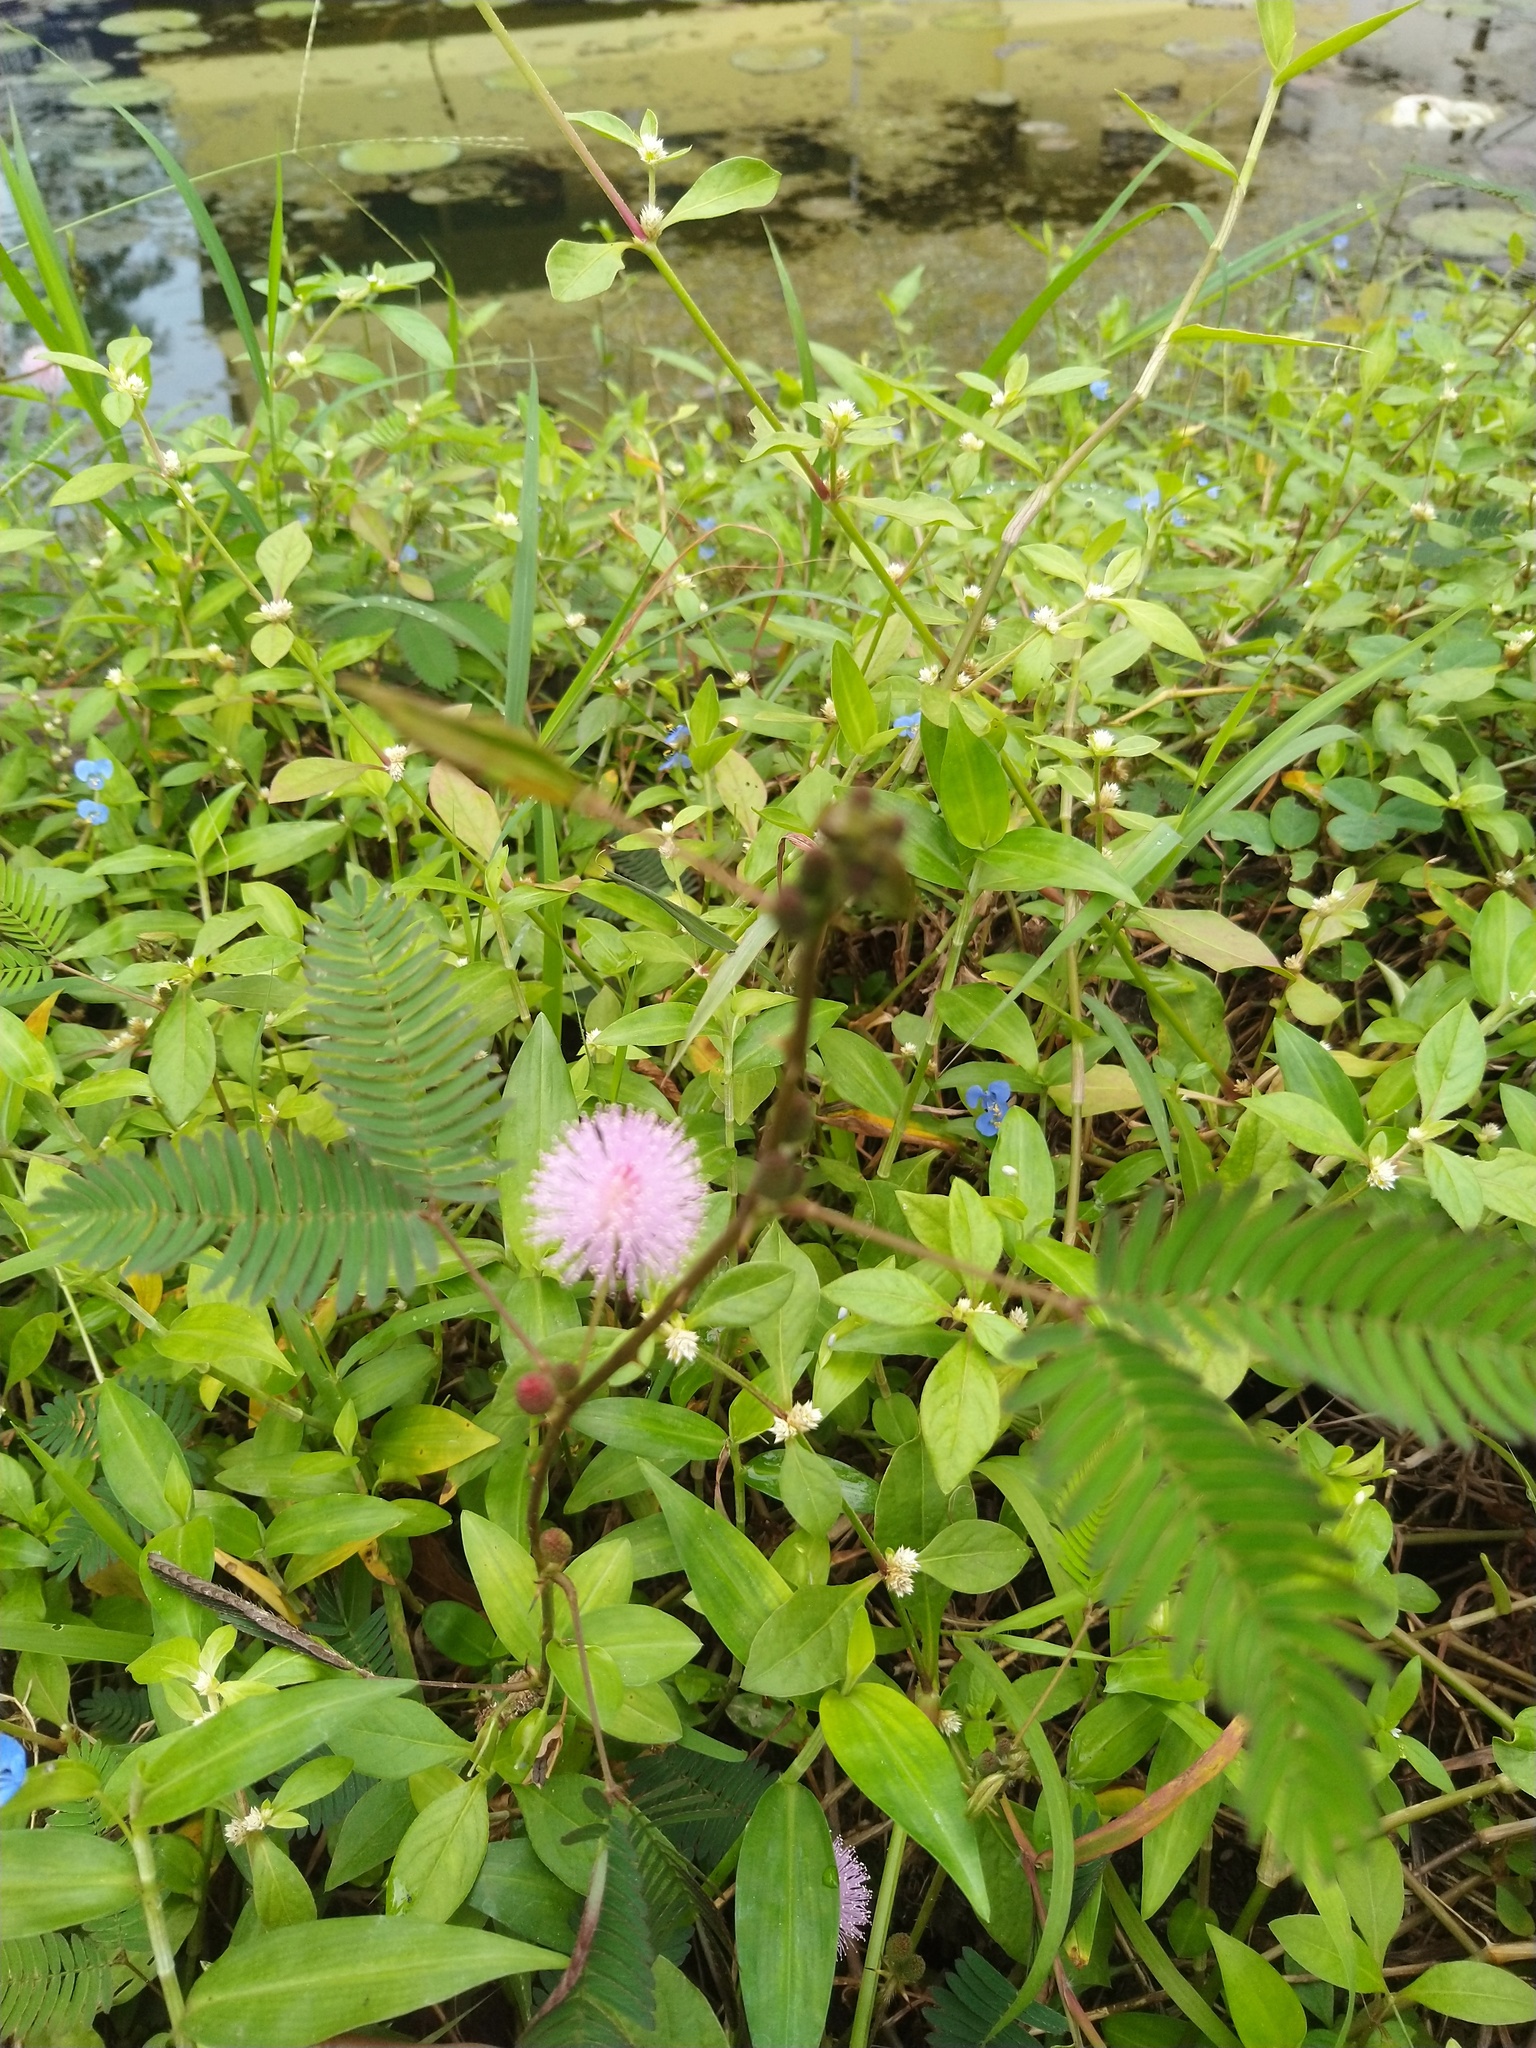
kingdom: Plantae
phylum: Tracheophyta
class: Magnoliopsida
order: Fabales
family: Fabaceae
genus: Mimosa
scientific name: Mimosa pudica
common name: Sensitive plant
